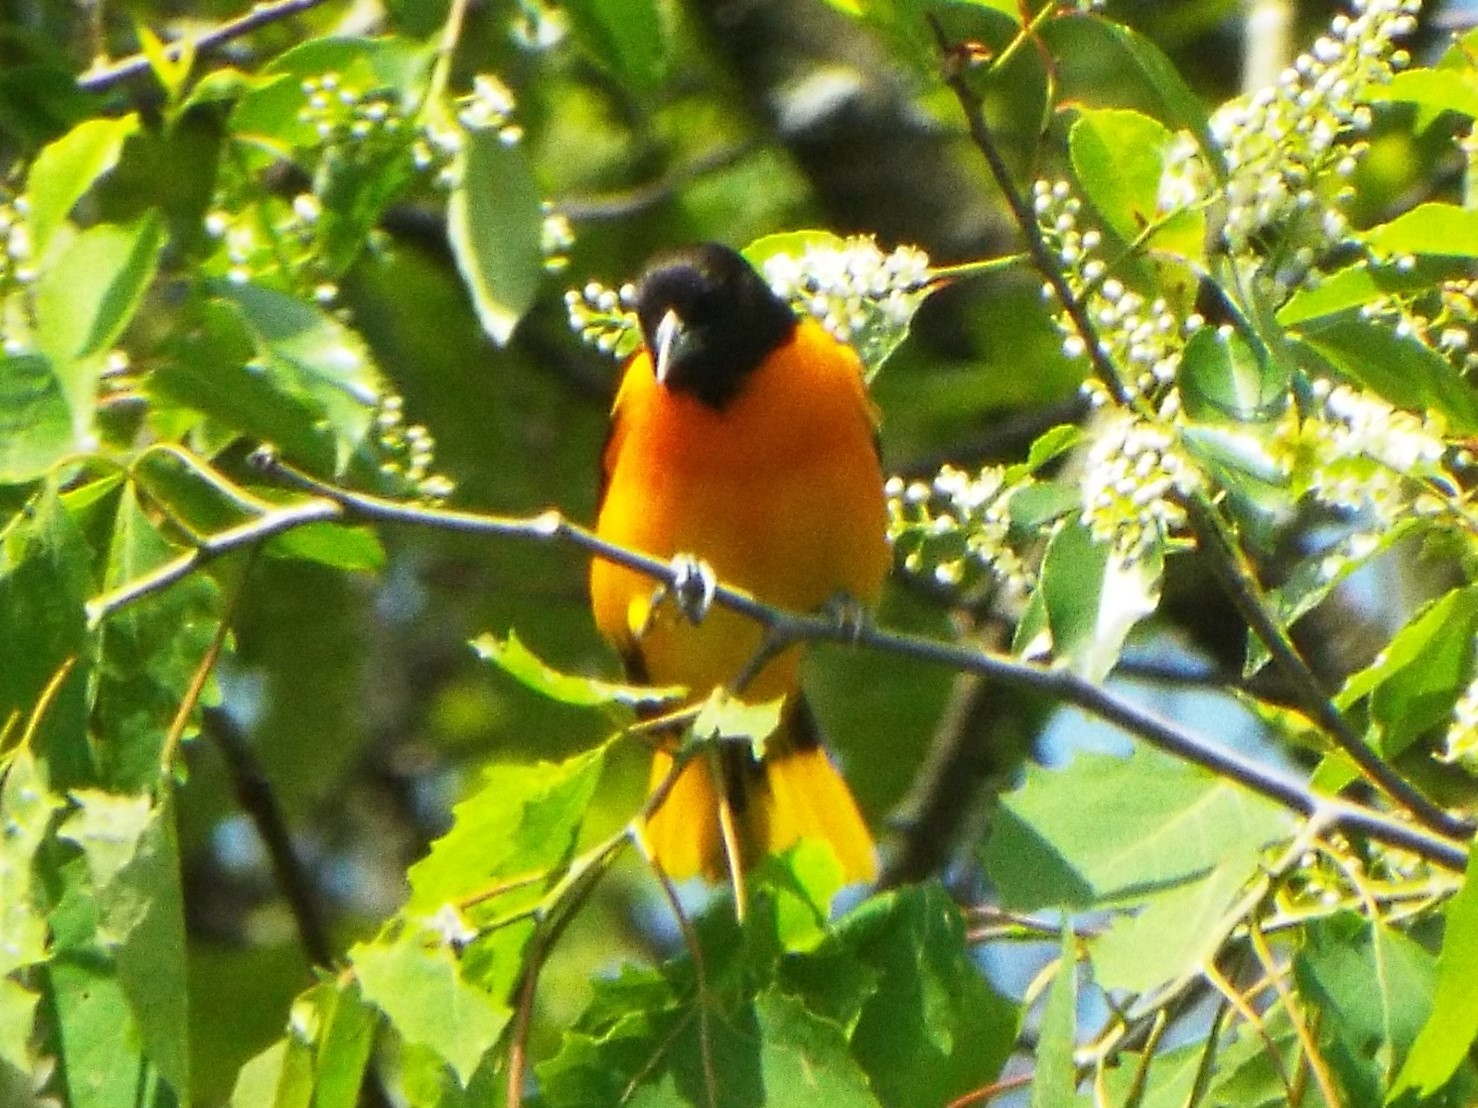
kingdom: Animalia
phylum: Chordata
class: Aves
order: Passeriformes
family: Icteridae
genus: Icterus
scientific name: Icterus galbula
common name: Baltimore oriole
